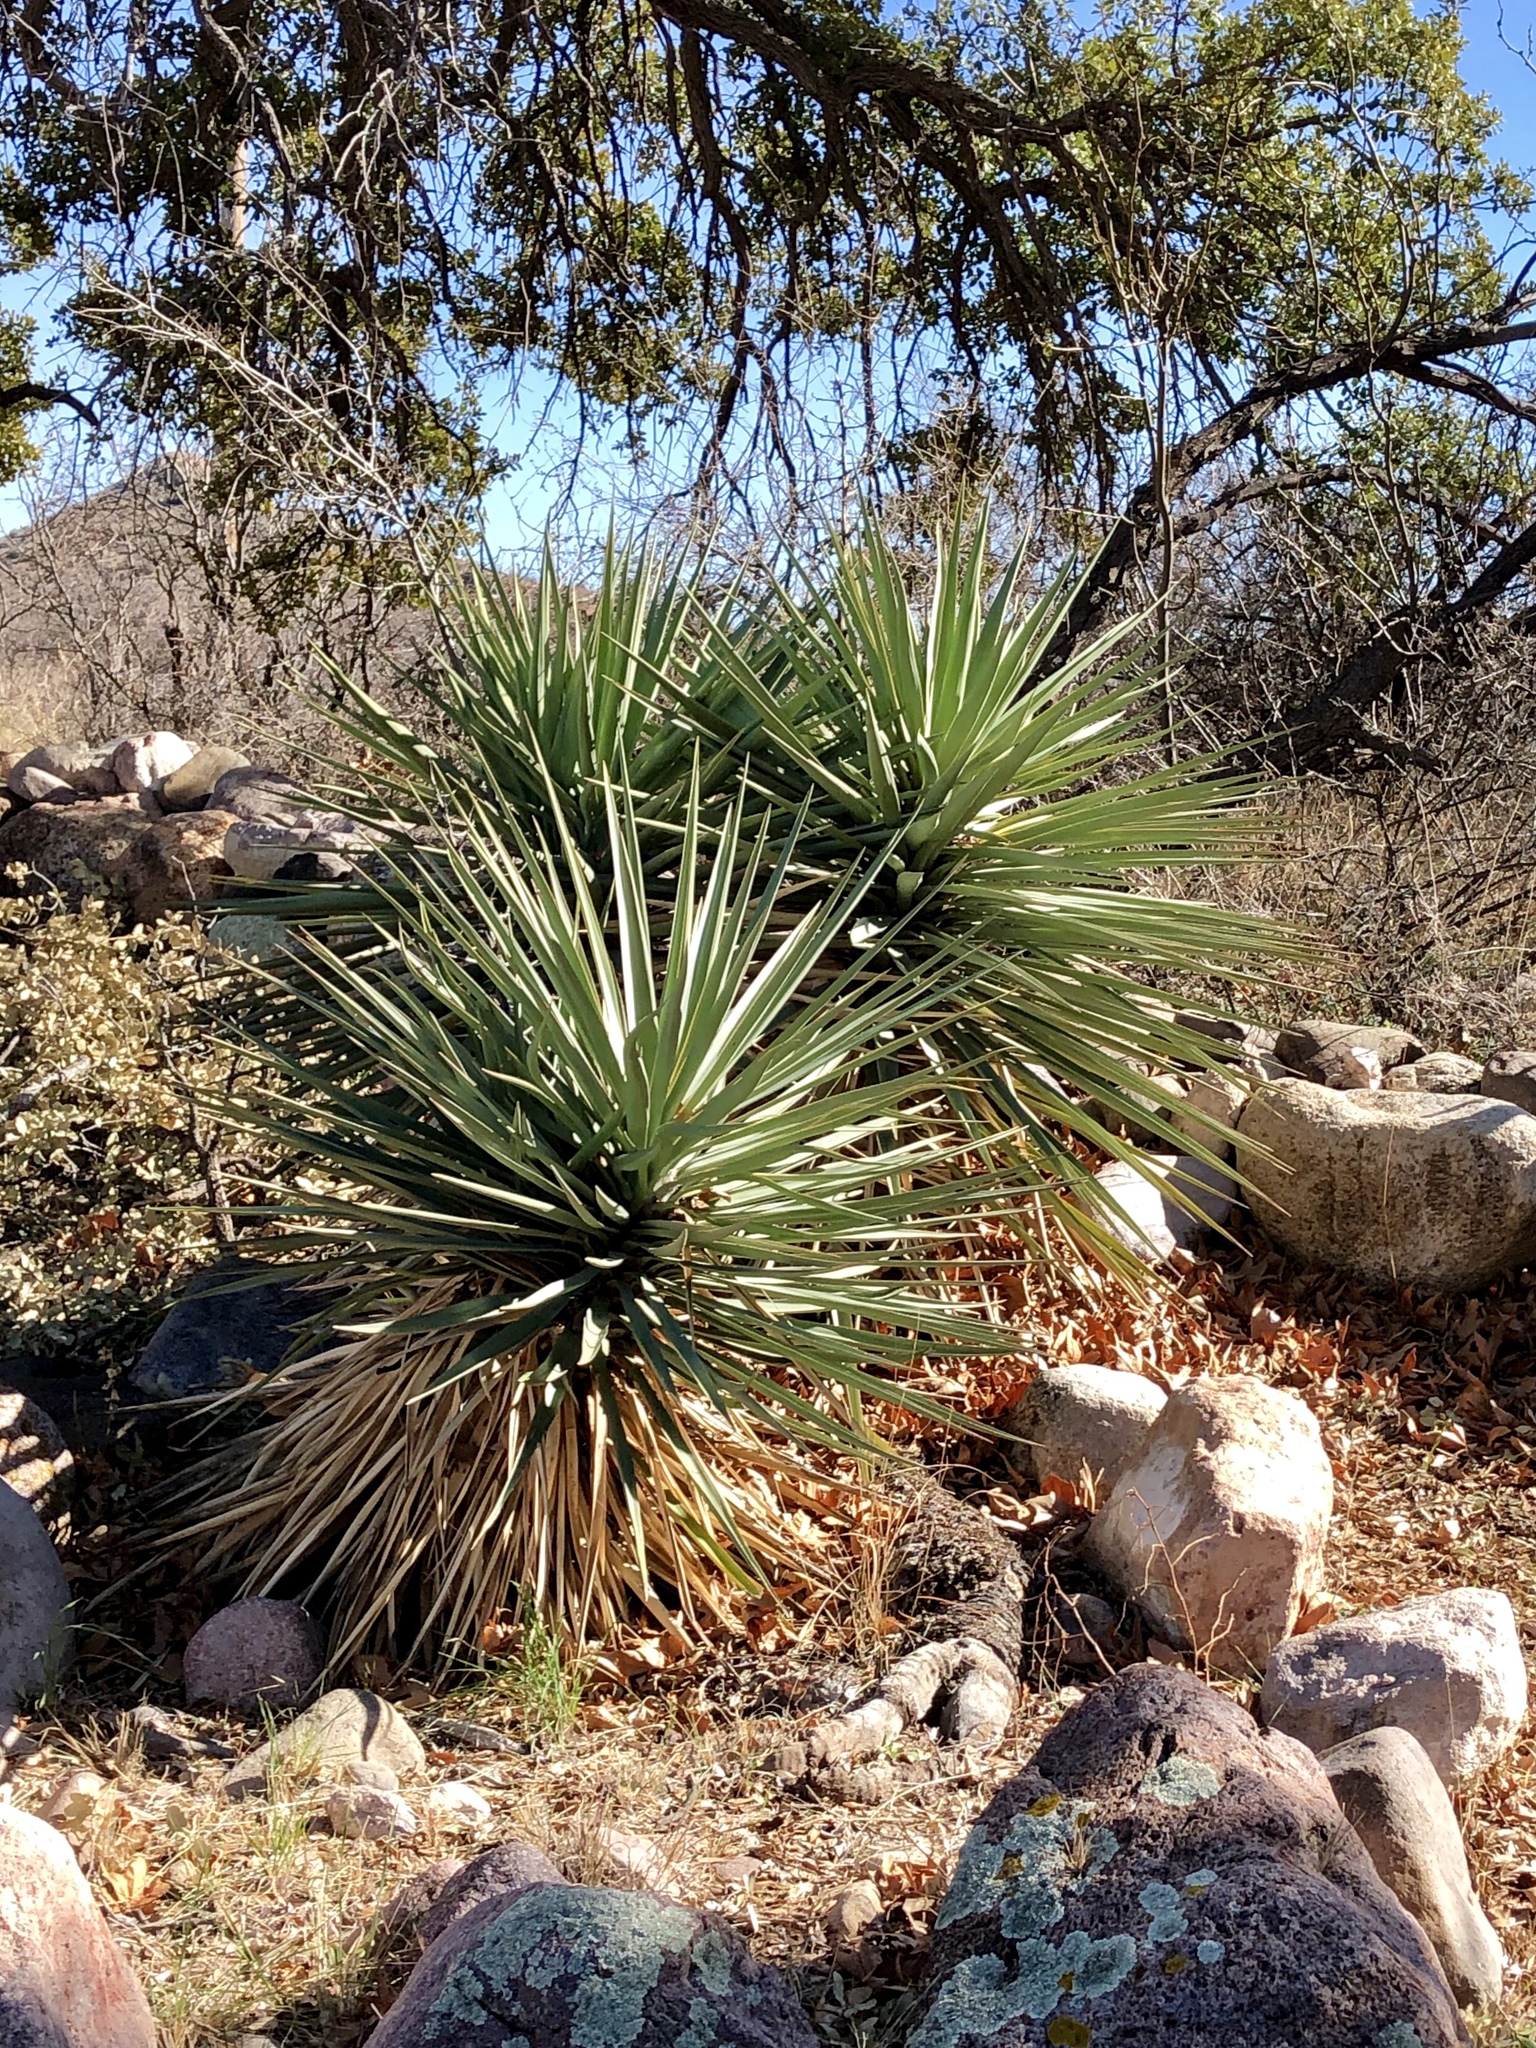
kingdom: Plantae
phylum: Tracheophyta
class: Liliopsida
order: Asparagales
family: Asparagaceae
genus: Yucca
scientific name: Yucca madrensis
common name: Hoary yucca
